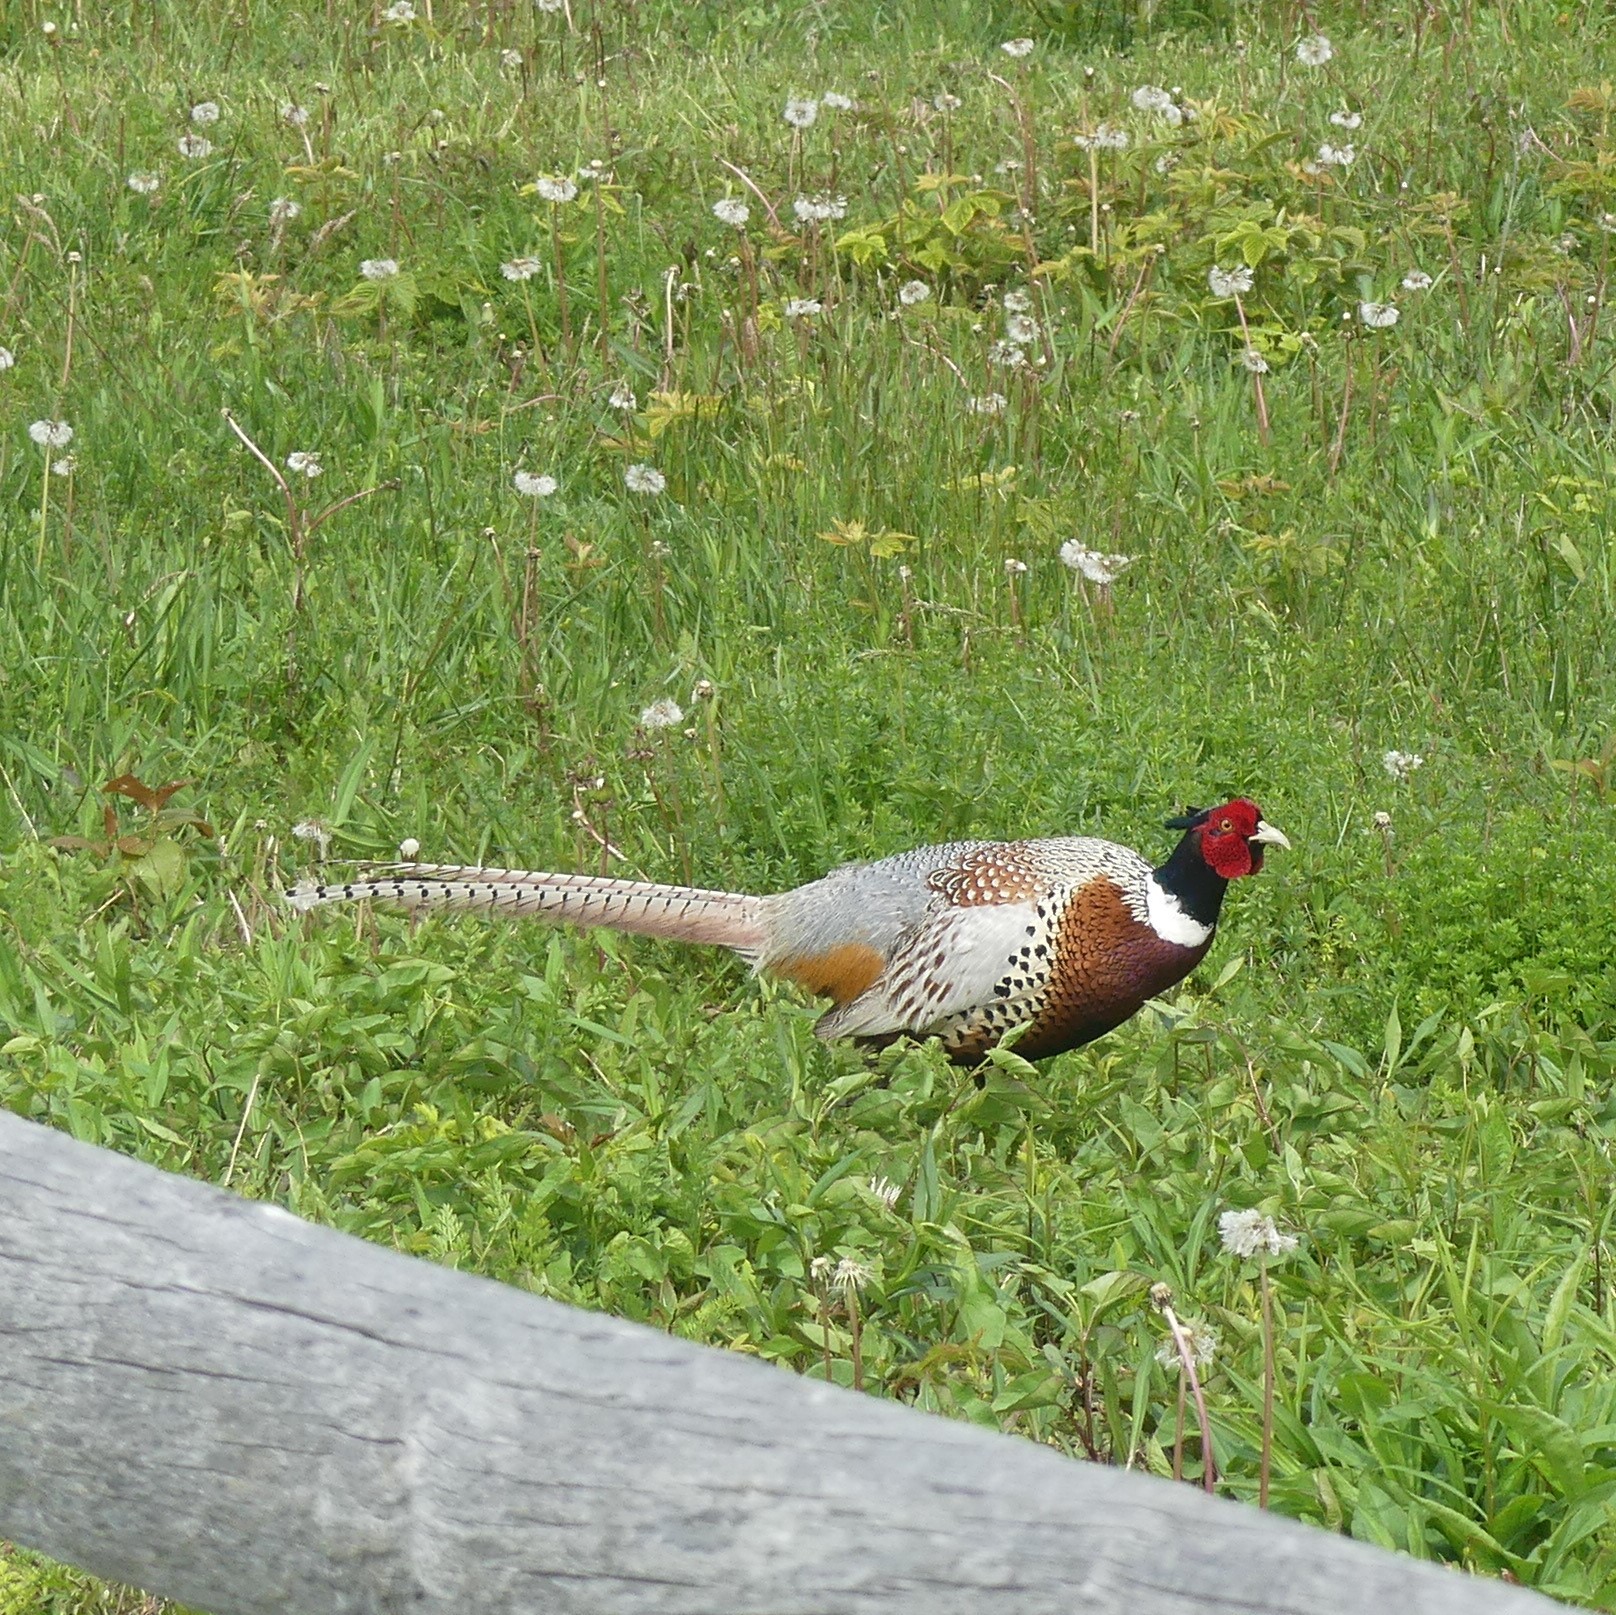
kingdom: Animalia
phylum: Chordata
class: Aves
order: Galliformes
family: Phasianidae
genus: Phasianus
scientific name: Phasianus colchicus
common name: Common pheasant
